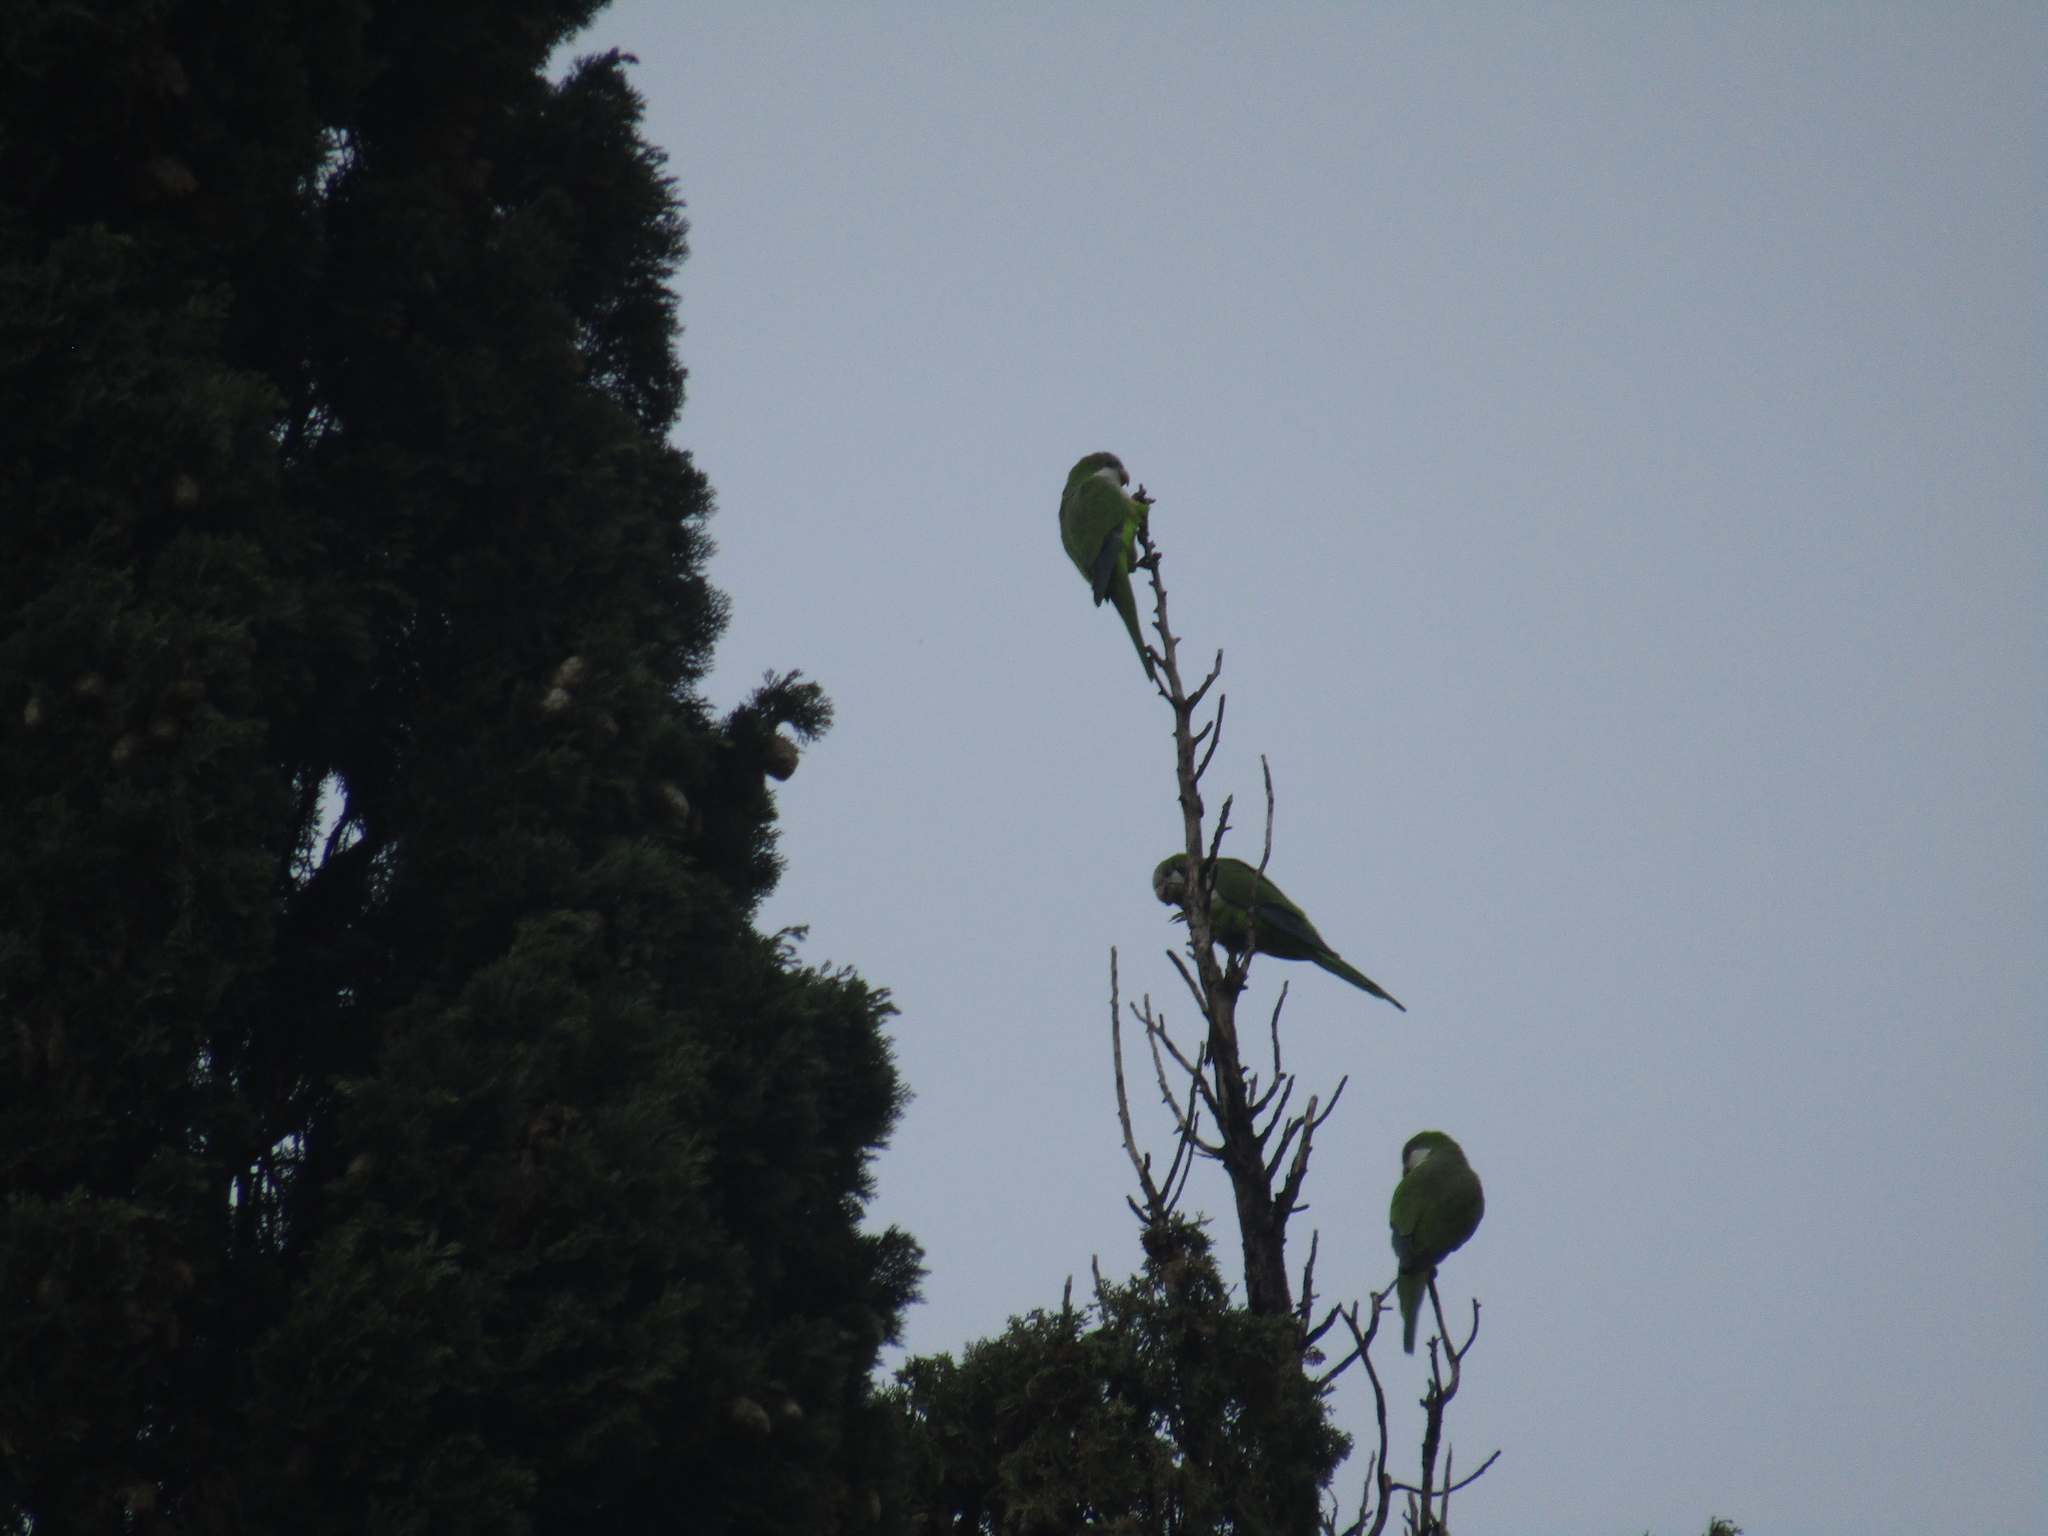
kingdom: Animalia
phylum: Chordata
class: Aves
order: Psittaciformes
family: Psittacidae
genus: Myiopsitta
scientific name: Myiopsitta monachus
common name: Monk parakeet
